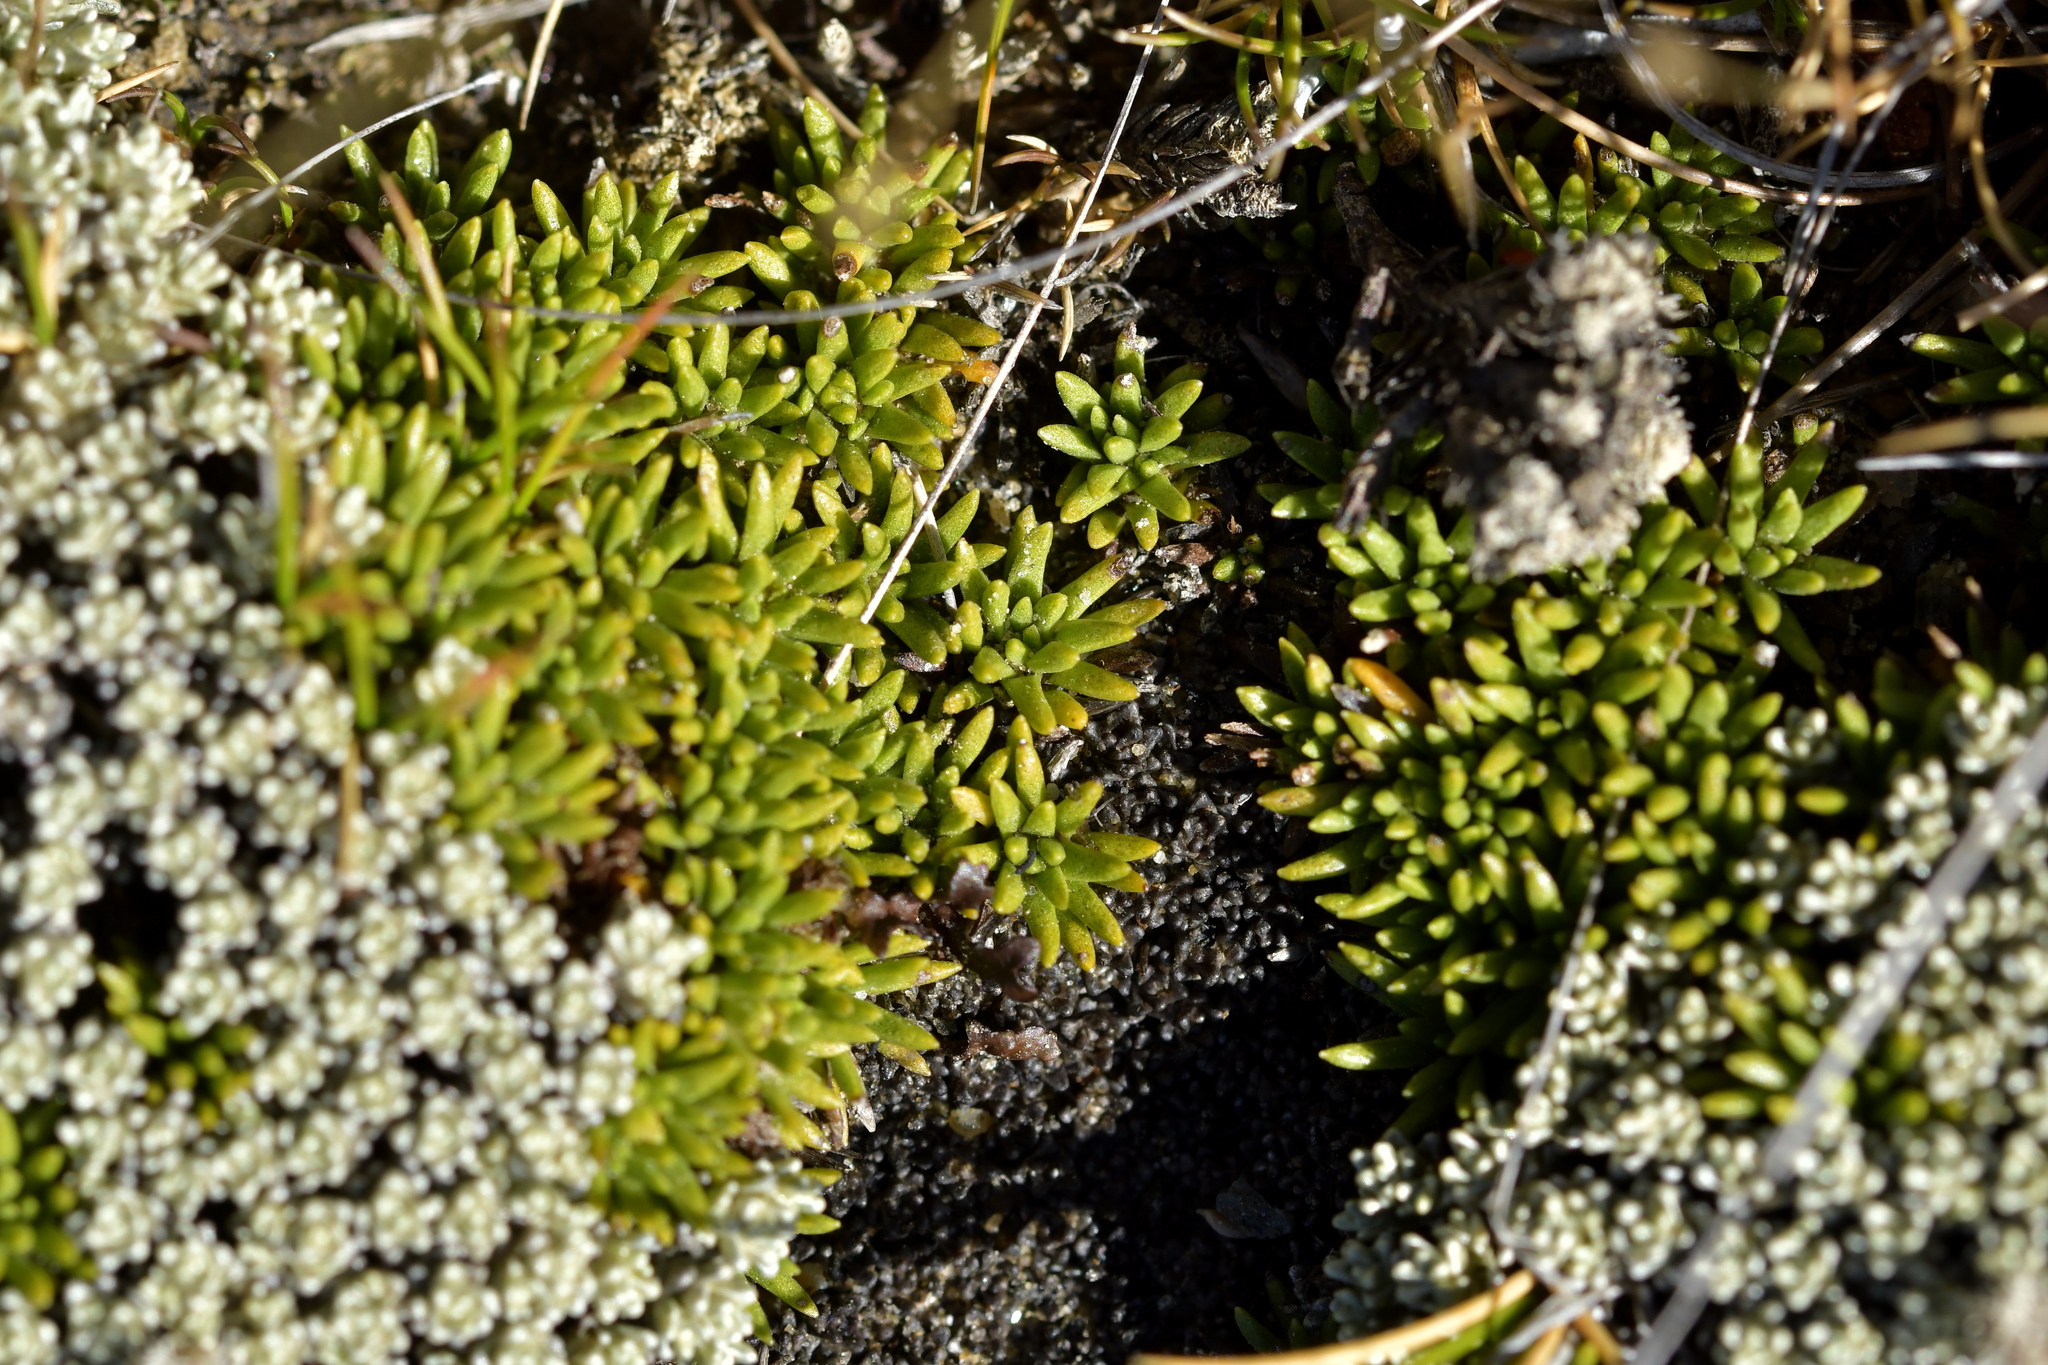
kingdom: Plantae
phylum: Tracheophyta
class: Magnoliopsida
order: Asterales
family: Asteraceae
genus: Abrotanella
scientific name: Abrotanella inconspicua
